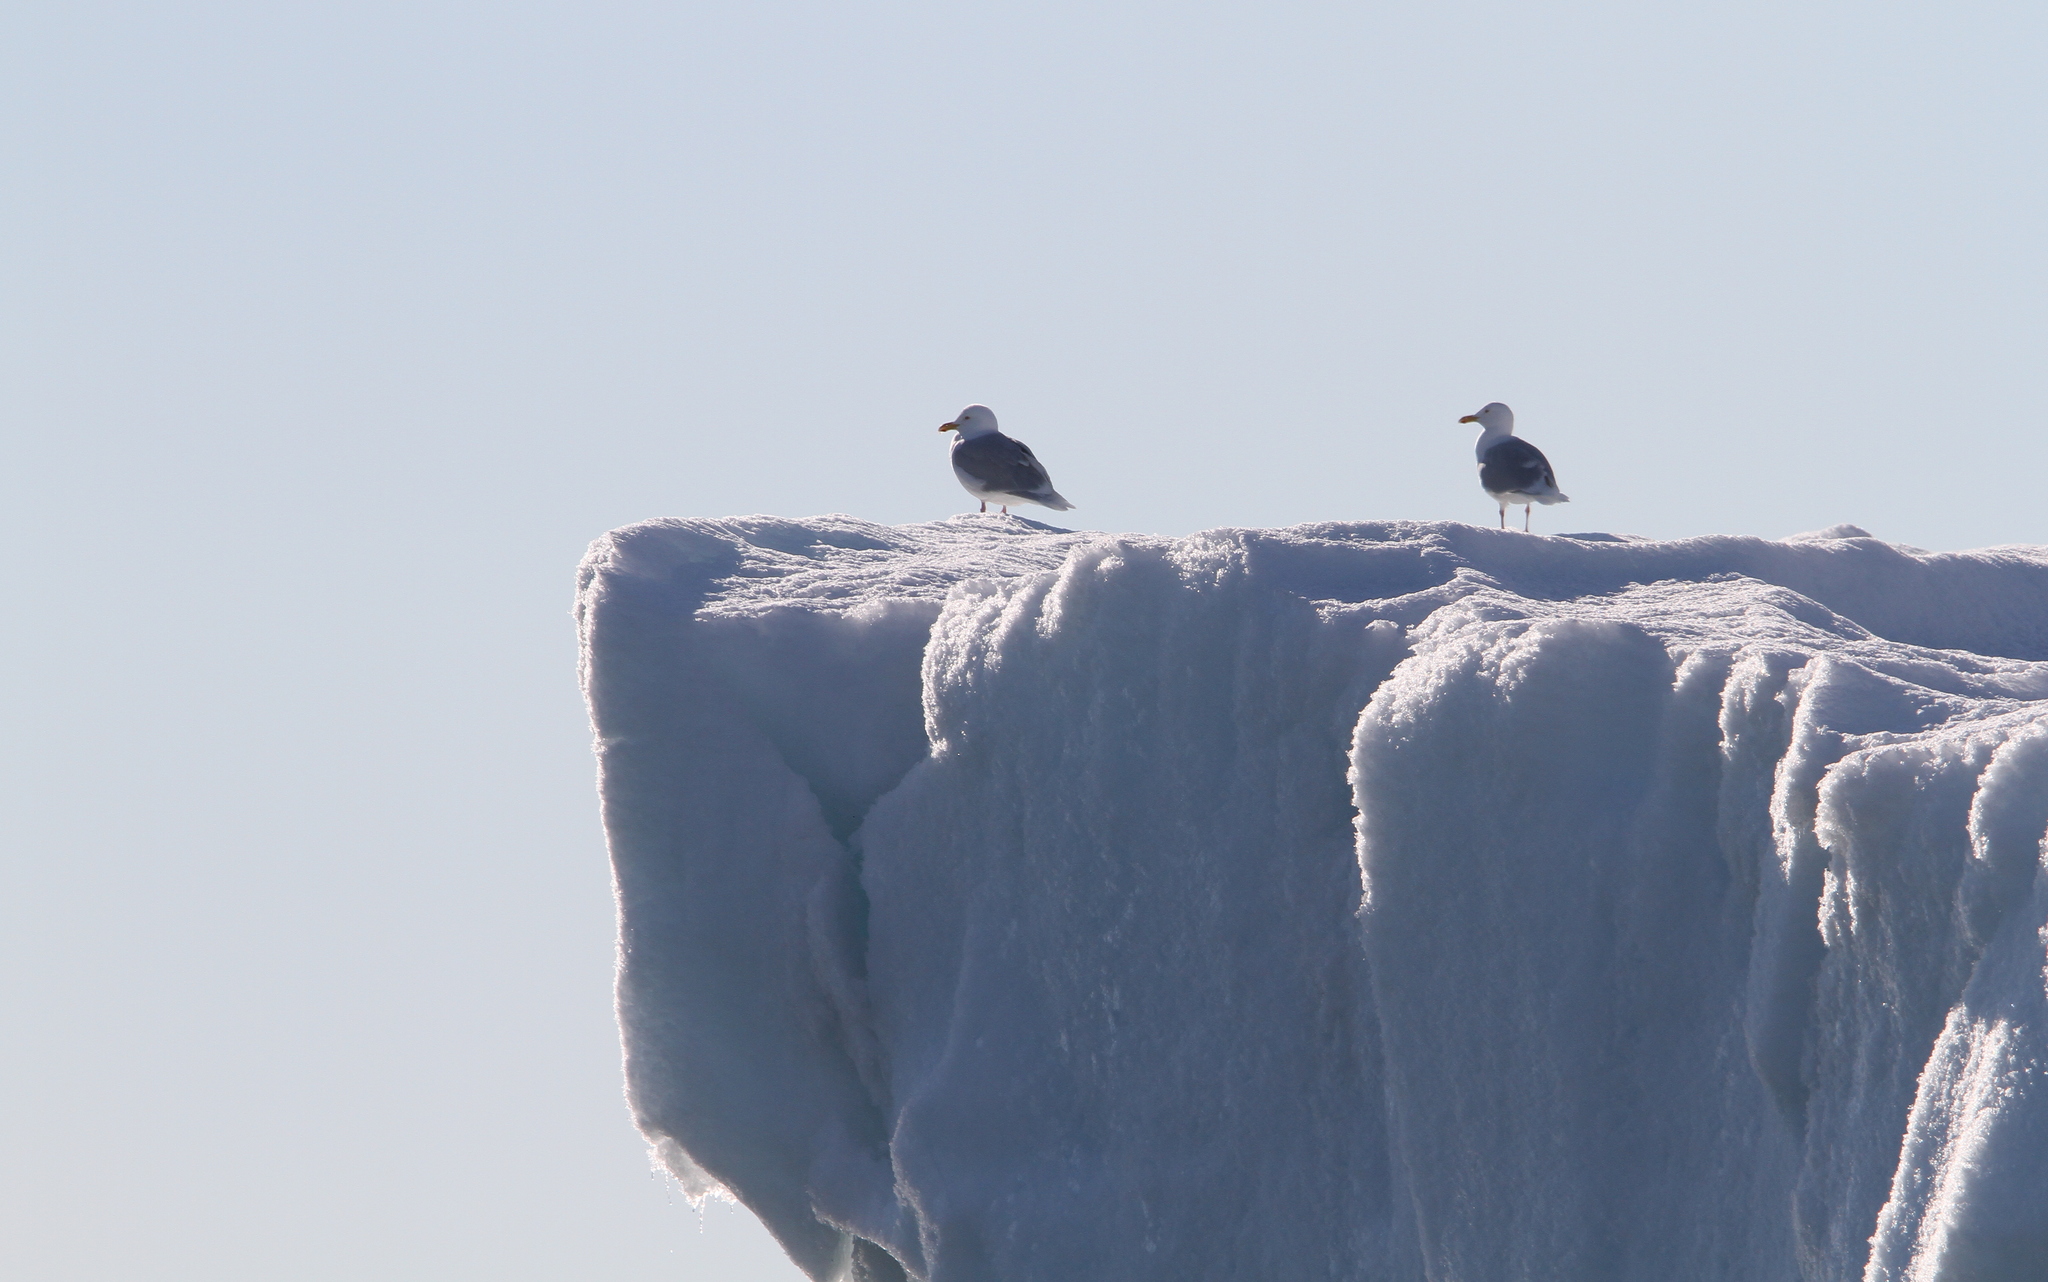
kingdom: Animalia
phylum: Chordata
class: Aves
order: Charadriiformes
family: Laridae
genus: Larus
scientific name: Larus hyperboreus
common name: Glaucous gull
